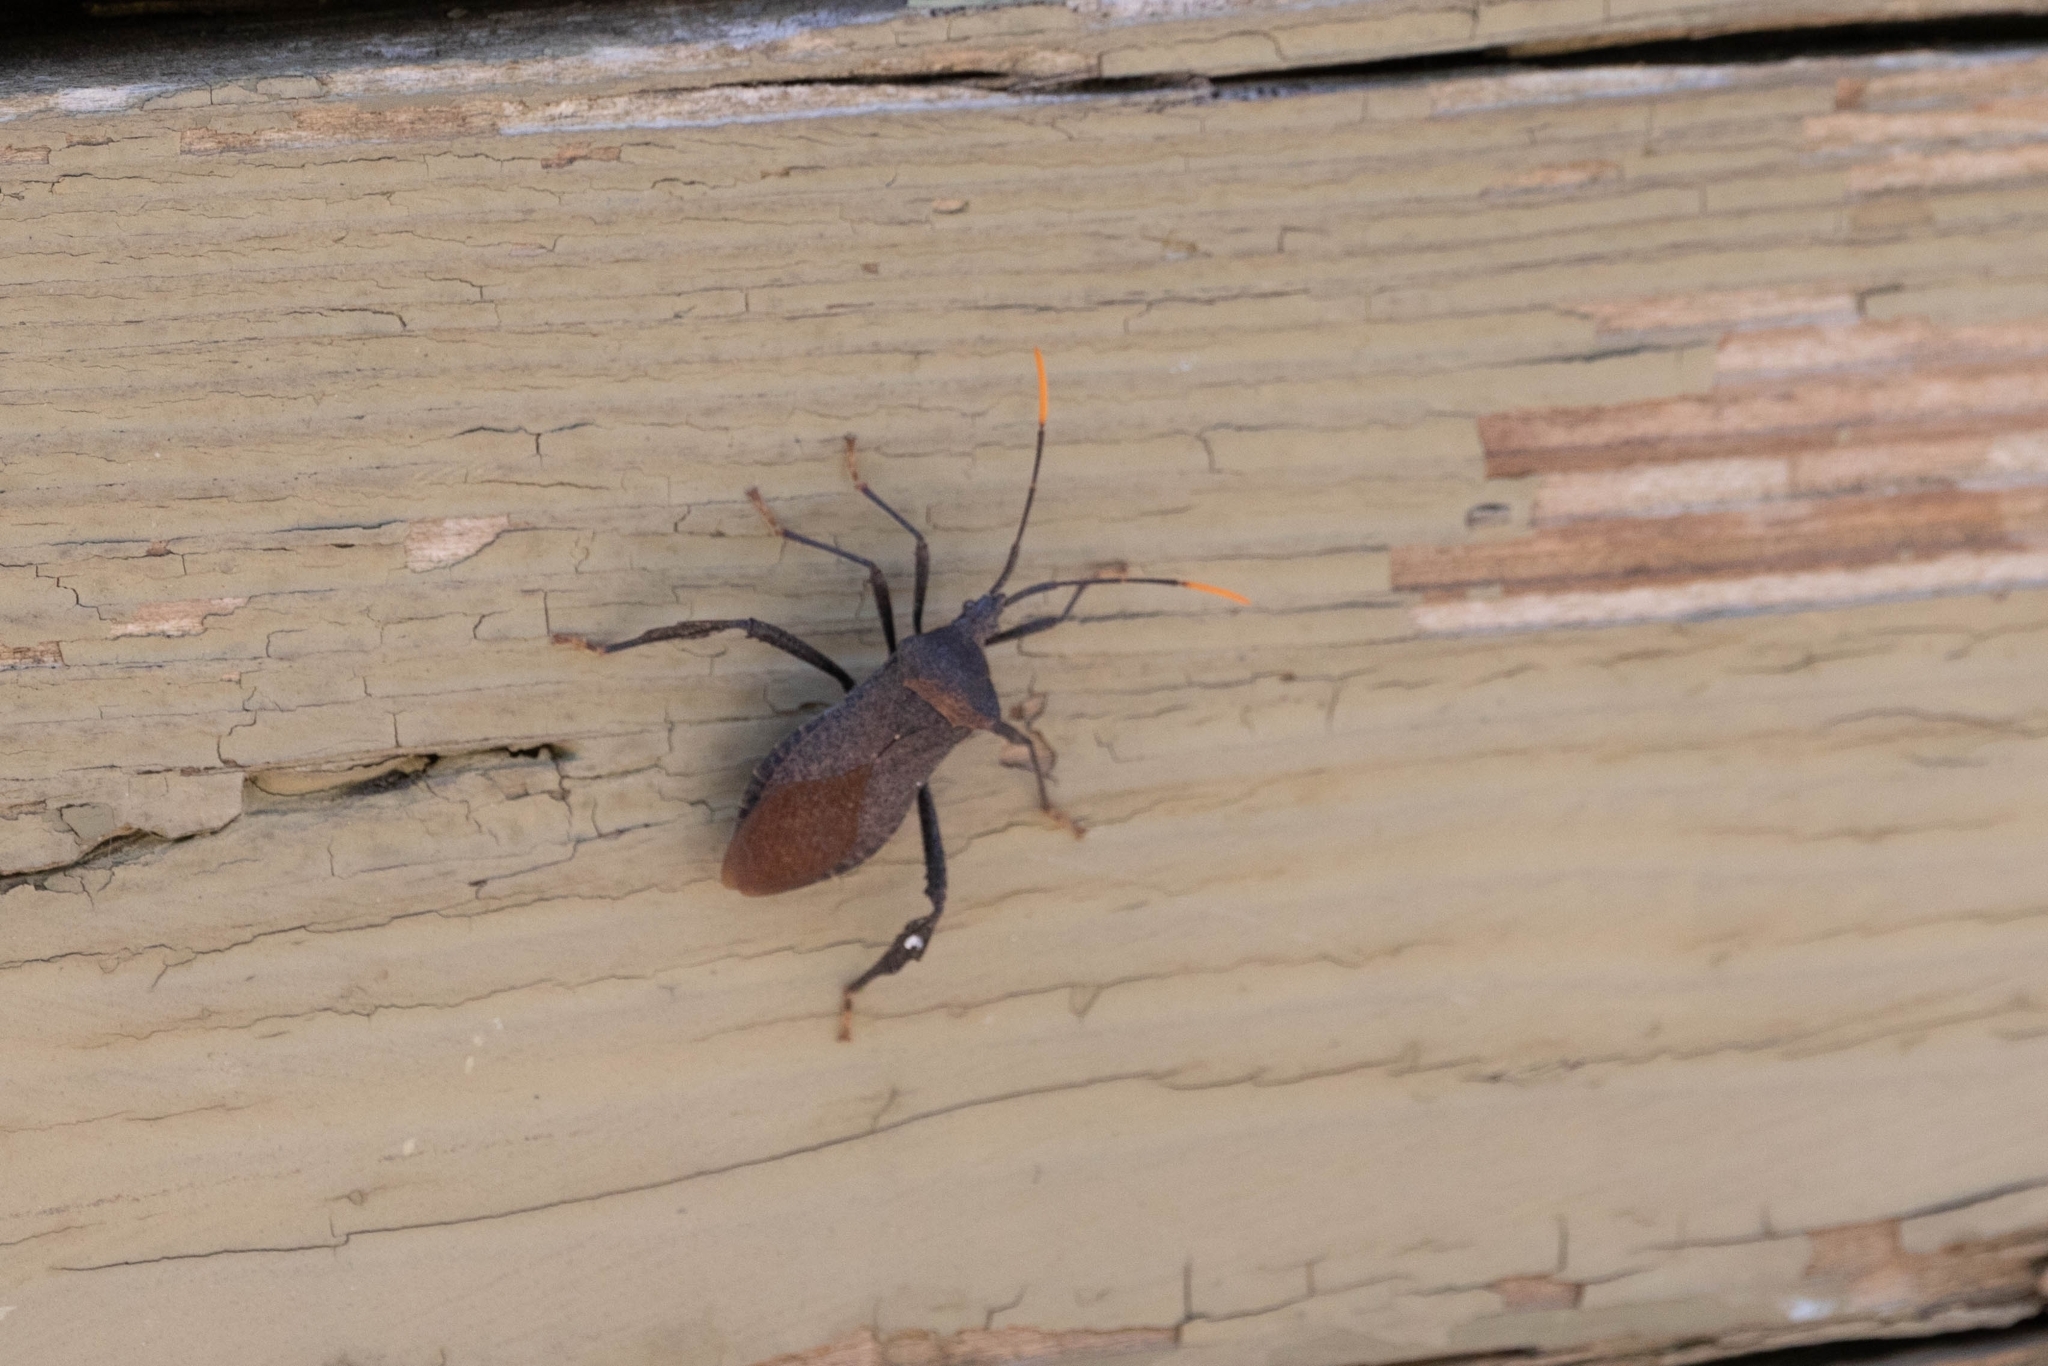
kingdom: Animalia
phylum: Arthropoda
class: Insecta
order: Hemiptera
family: Coreidae
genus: Acanthocephala
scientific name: Acanthocephala terminalis
